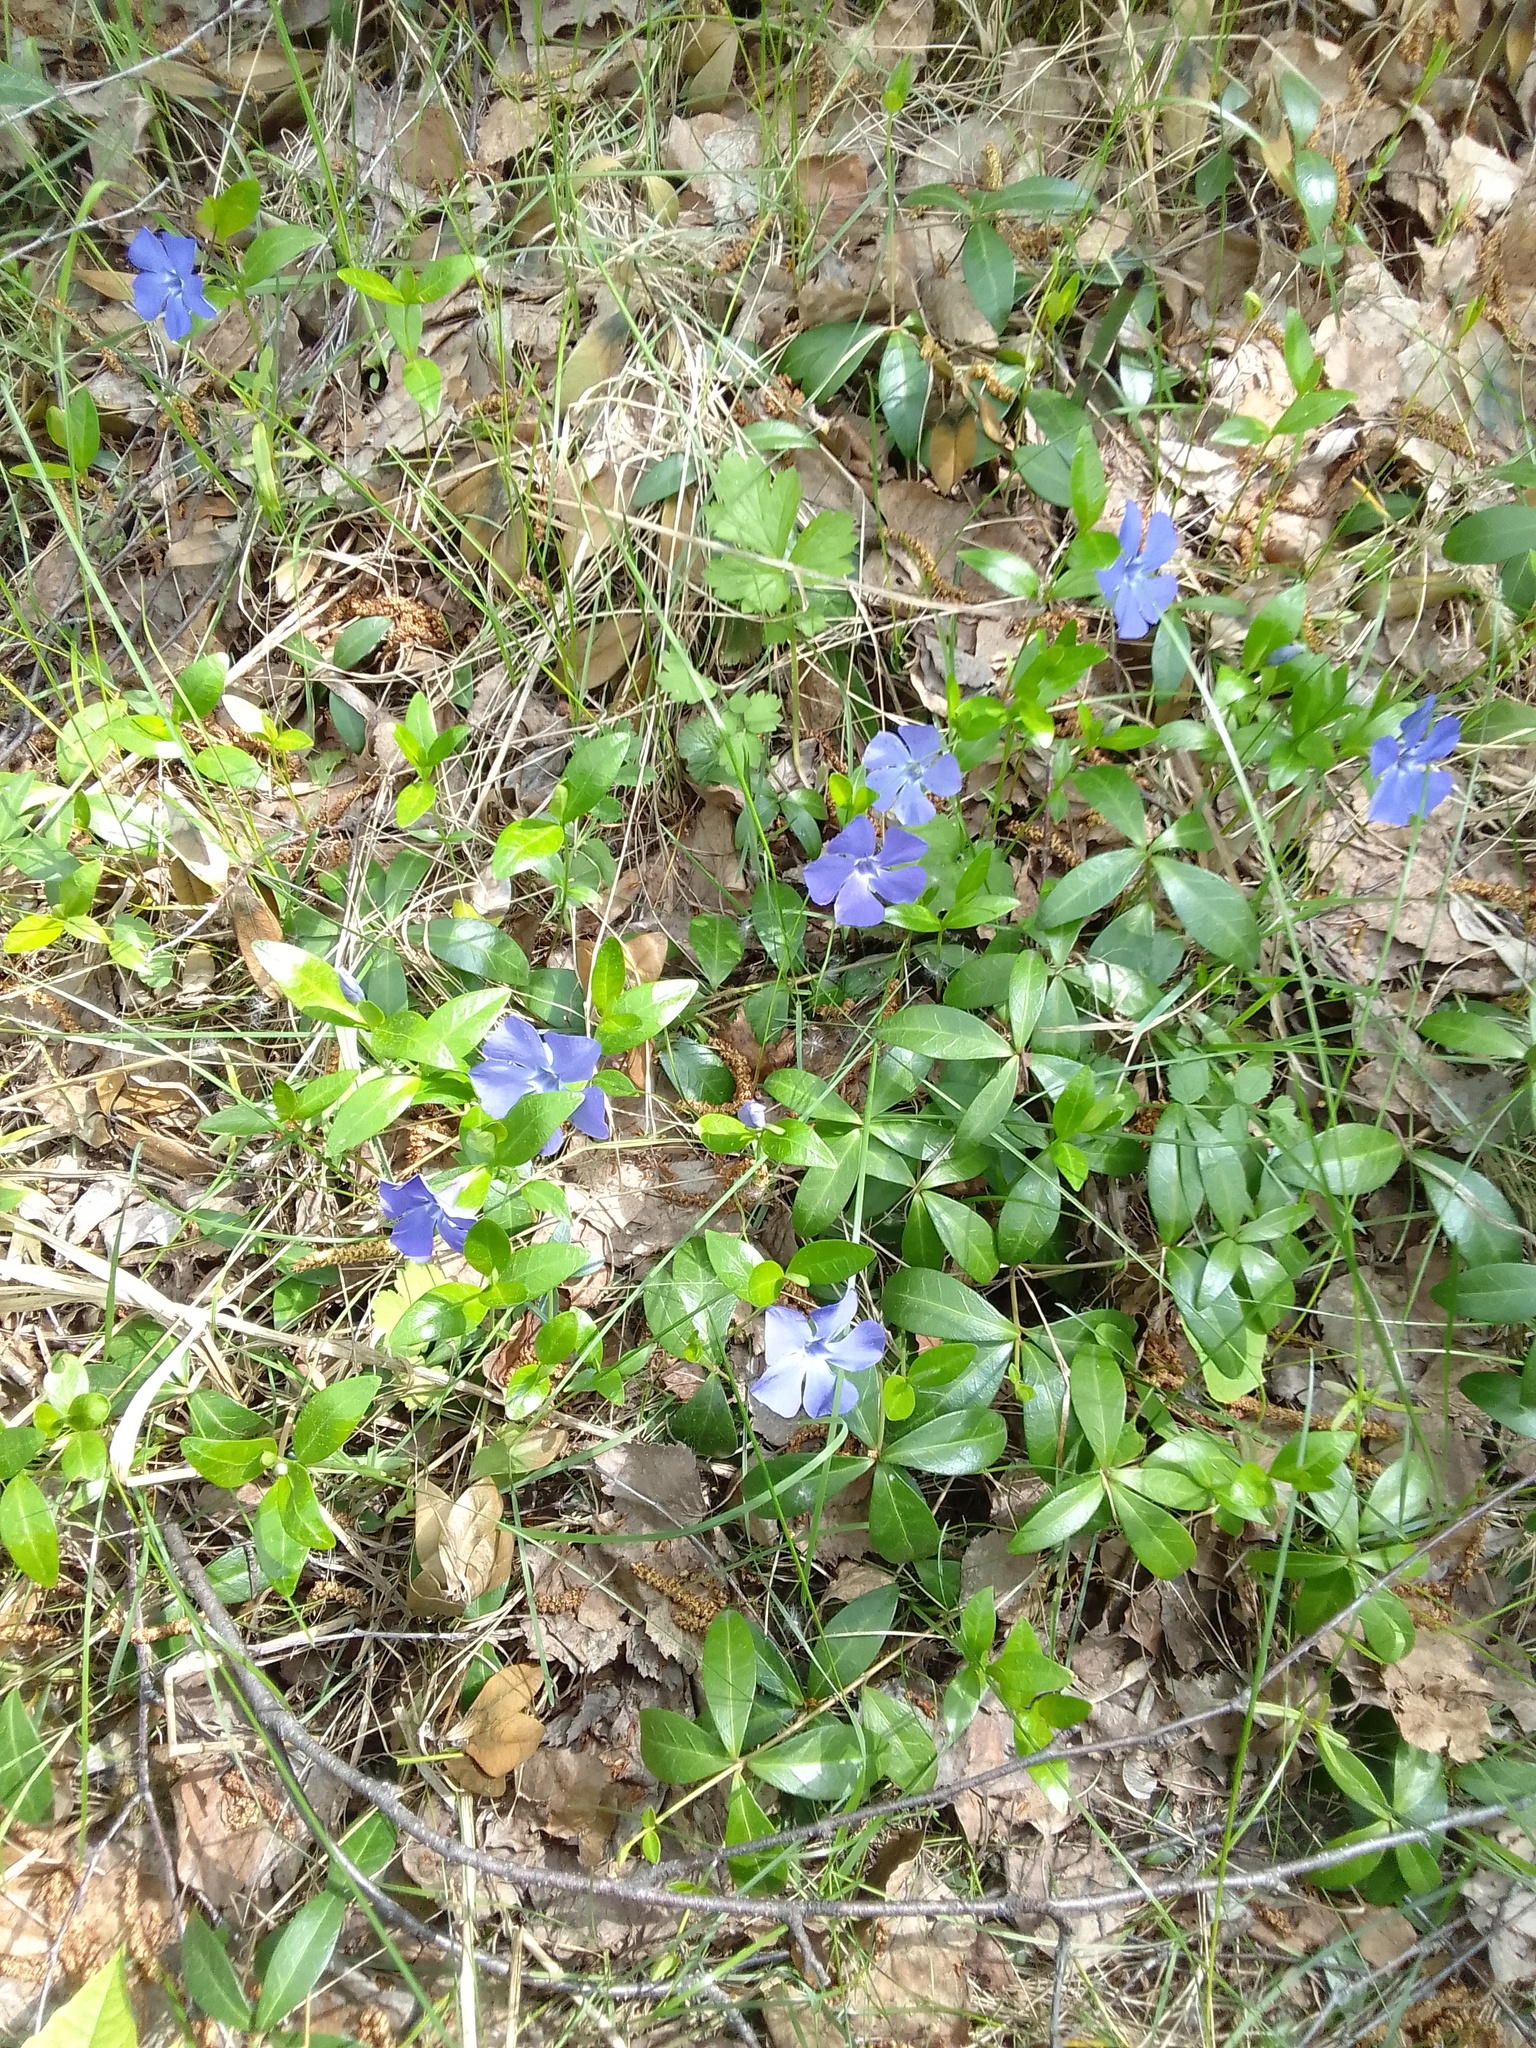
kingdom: Plantae
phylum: Tracheophyta
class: Magnoliopsida
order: Gentianales
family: Apocynaceae
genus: Vinca
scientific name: Vinca minor
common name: Lesser periwinkle
